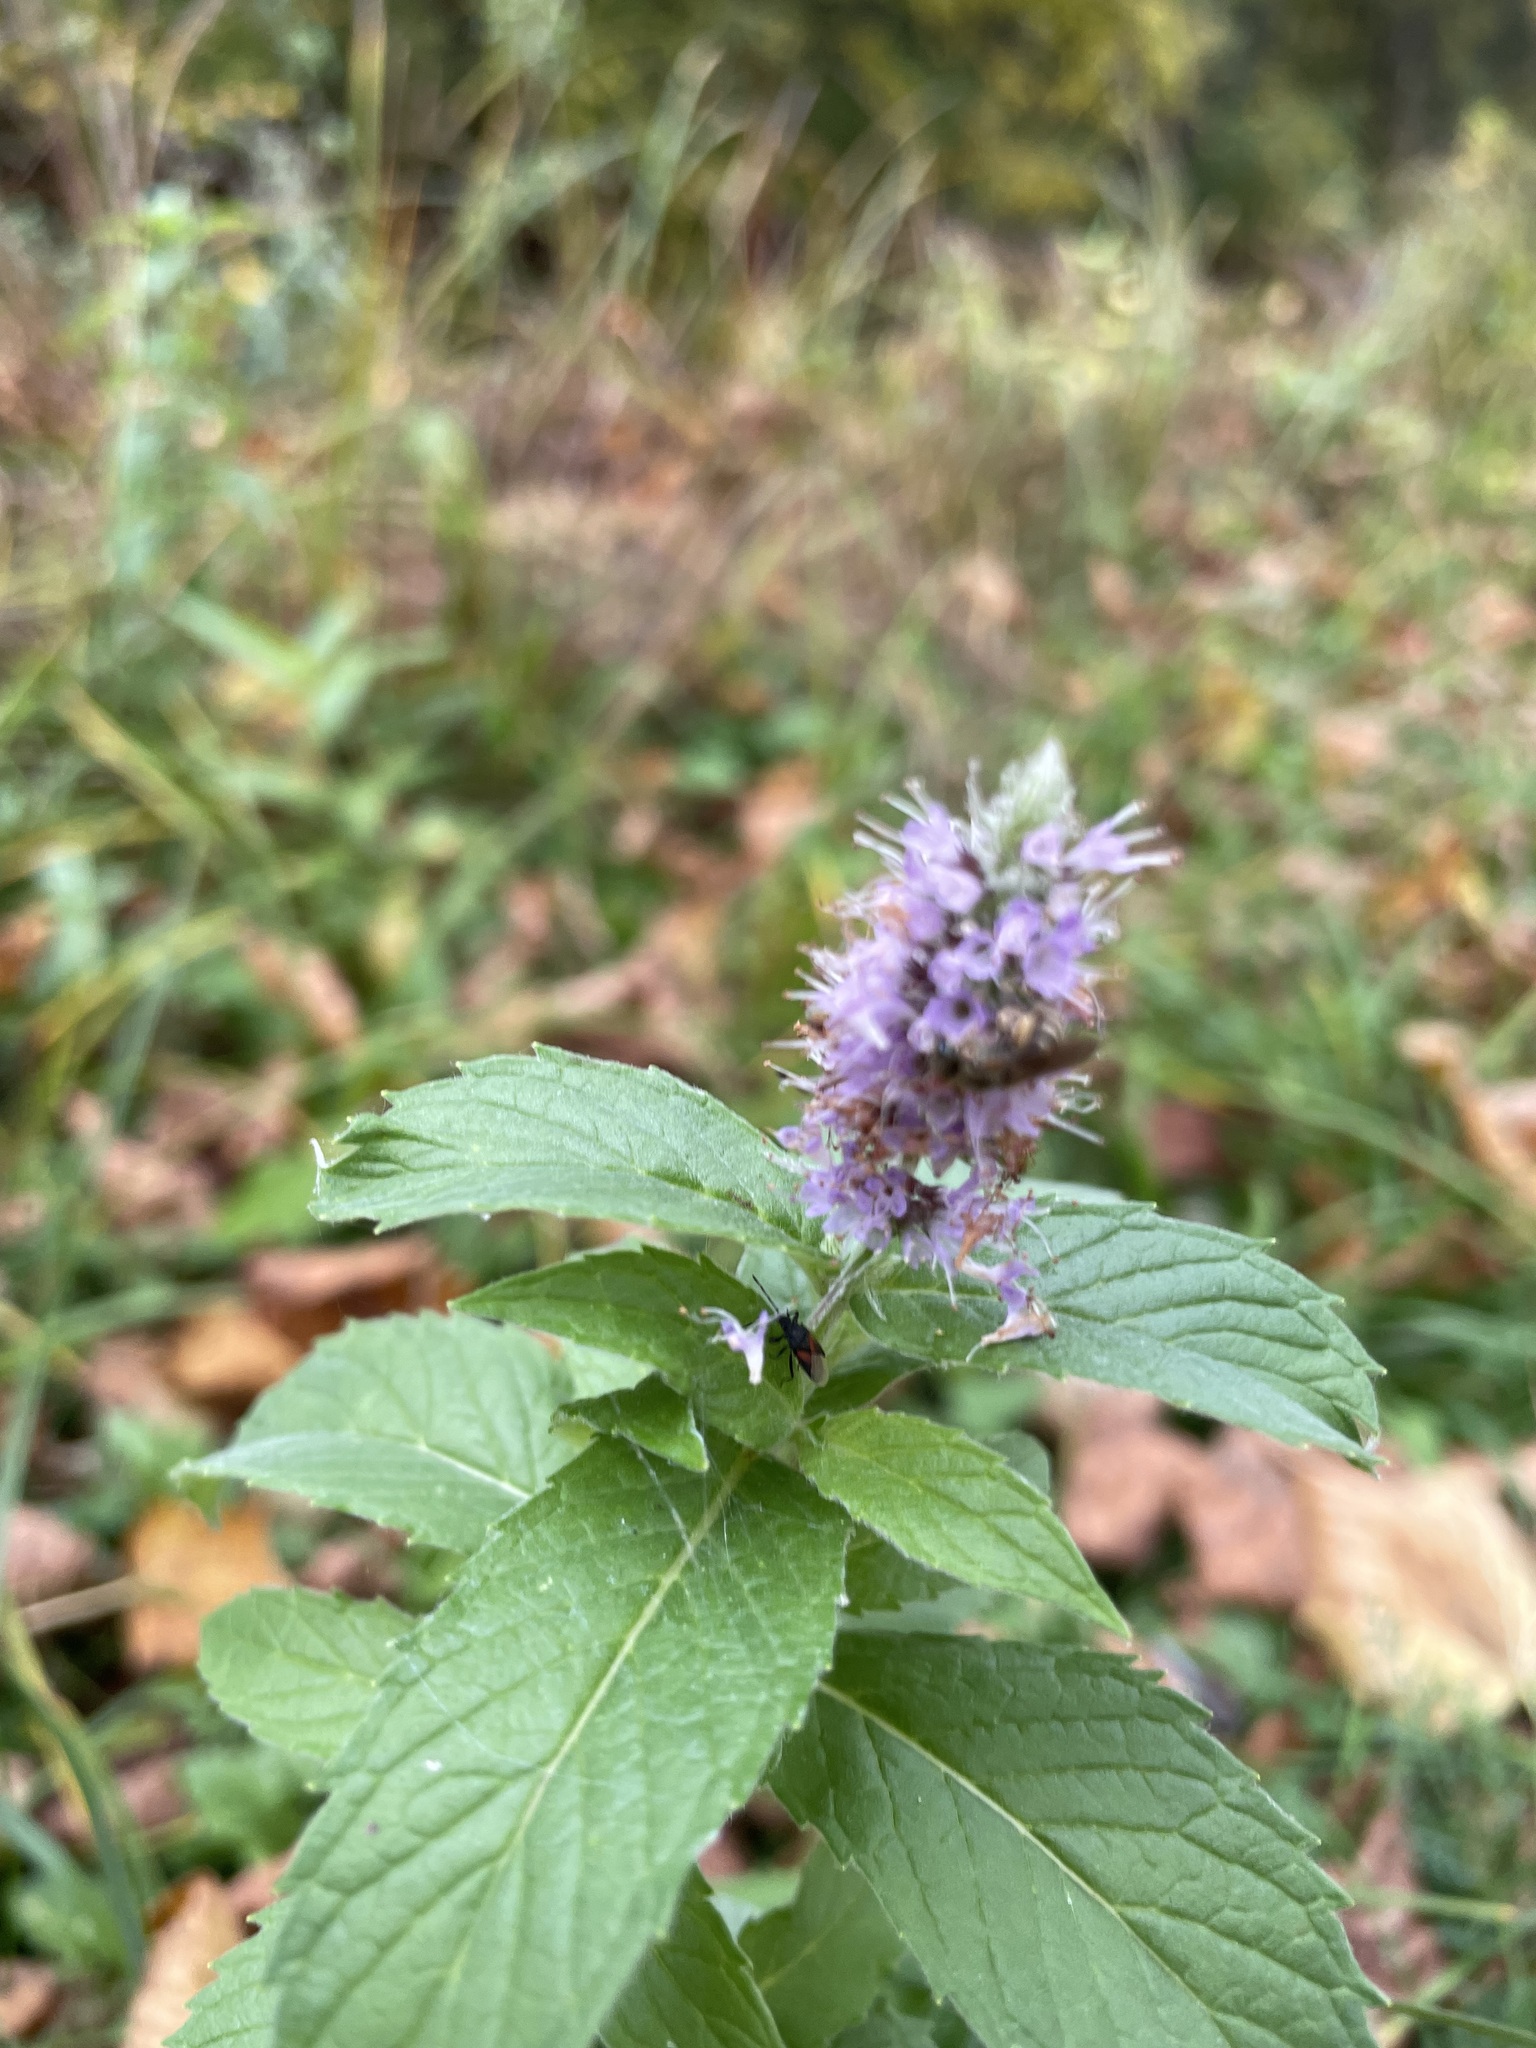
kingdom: Plantae
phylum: Tracheophyta
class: Magnoliopsida
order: Lamiales
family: Lamiaceae
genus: Mentha
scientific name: Mentha longifolia
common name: Horse mint
